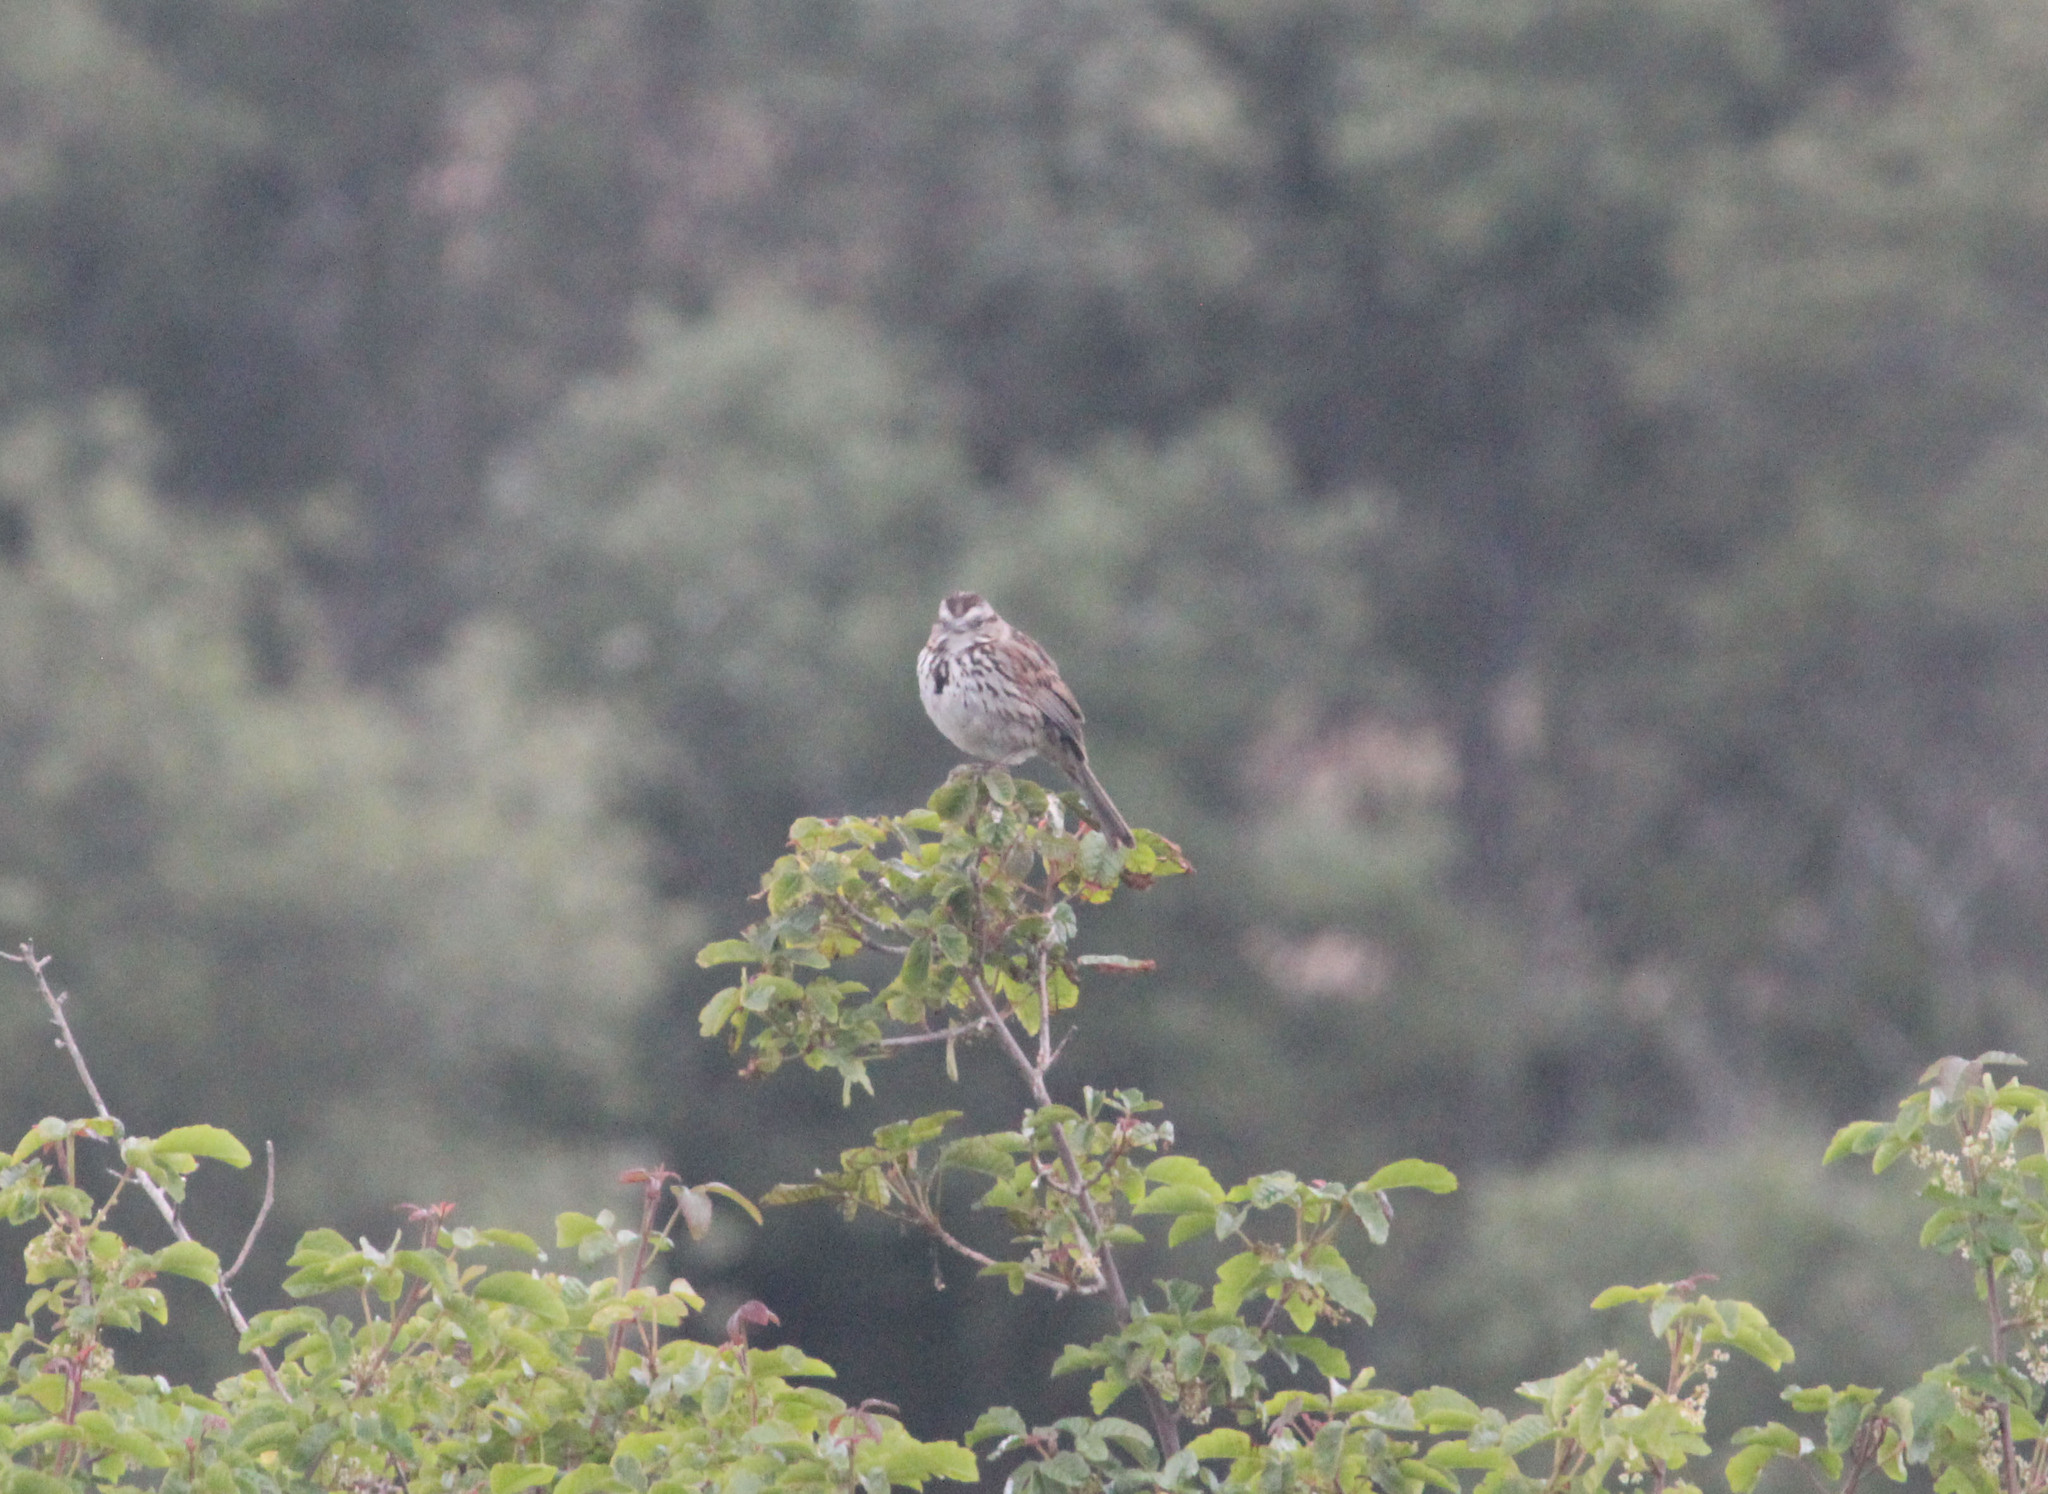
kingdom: Animalia
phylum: Chordata
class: Aves
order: Passeriformes
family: Passerellidae
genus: Melospiza
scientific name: Melospiza melodia
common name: Song sparrow
